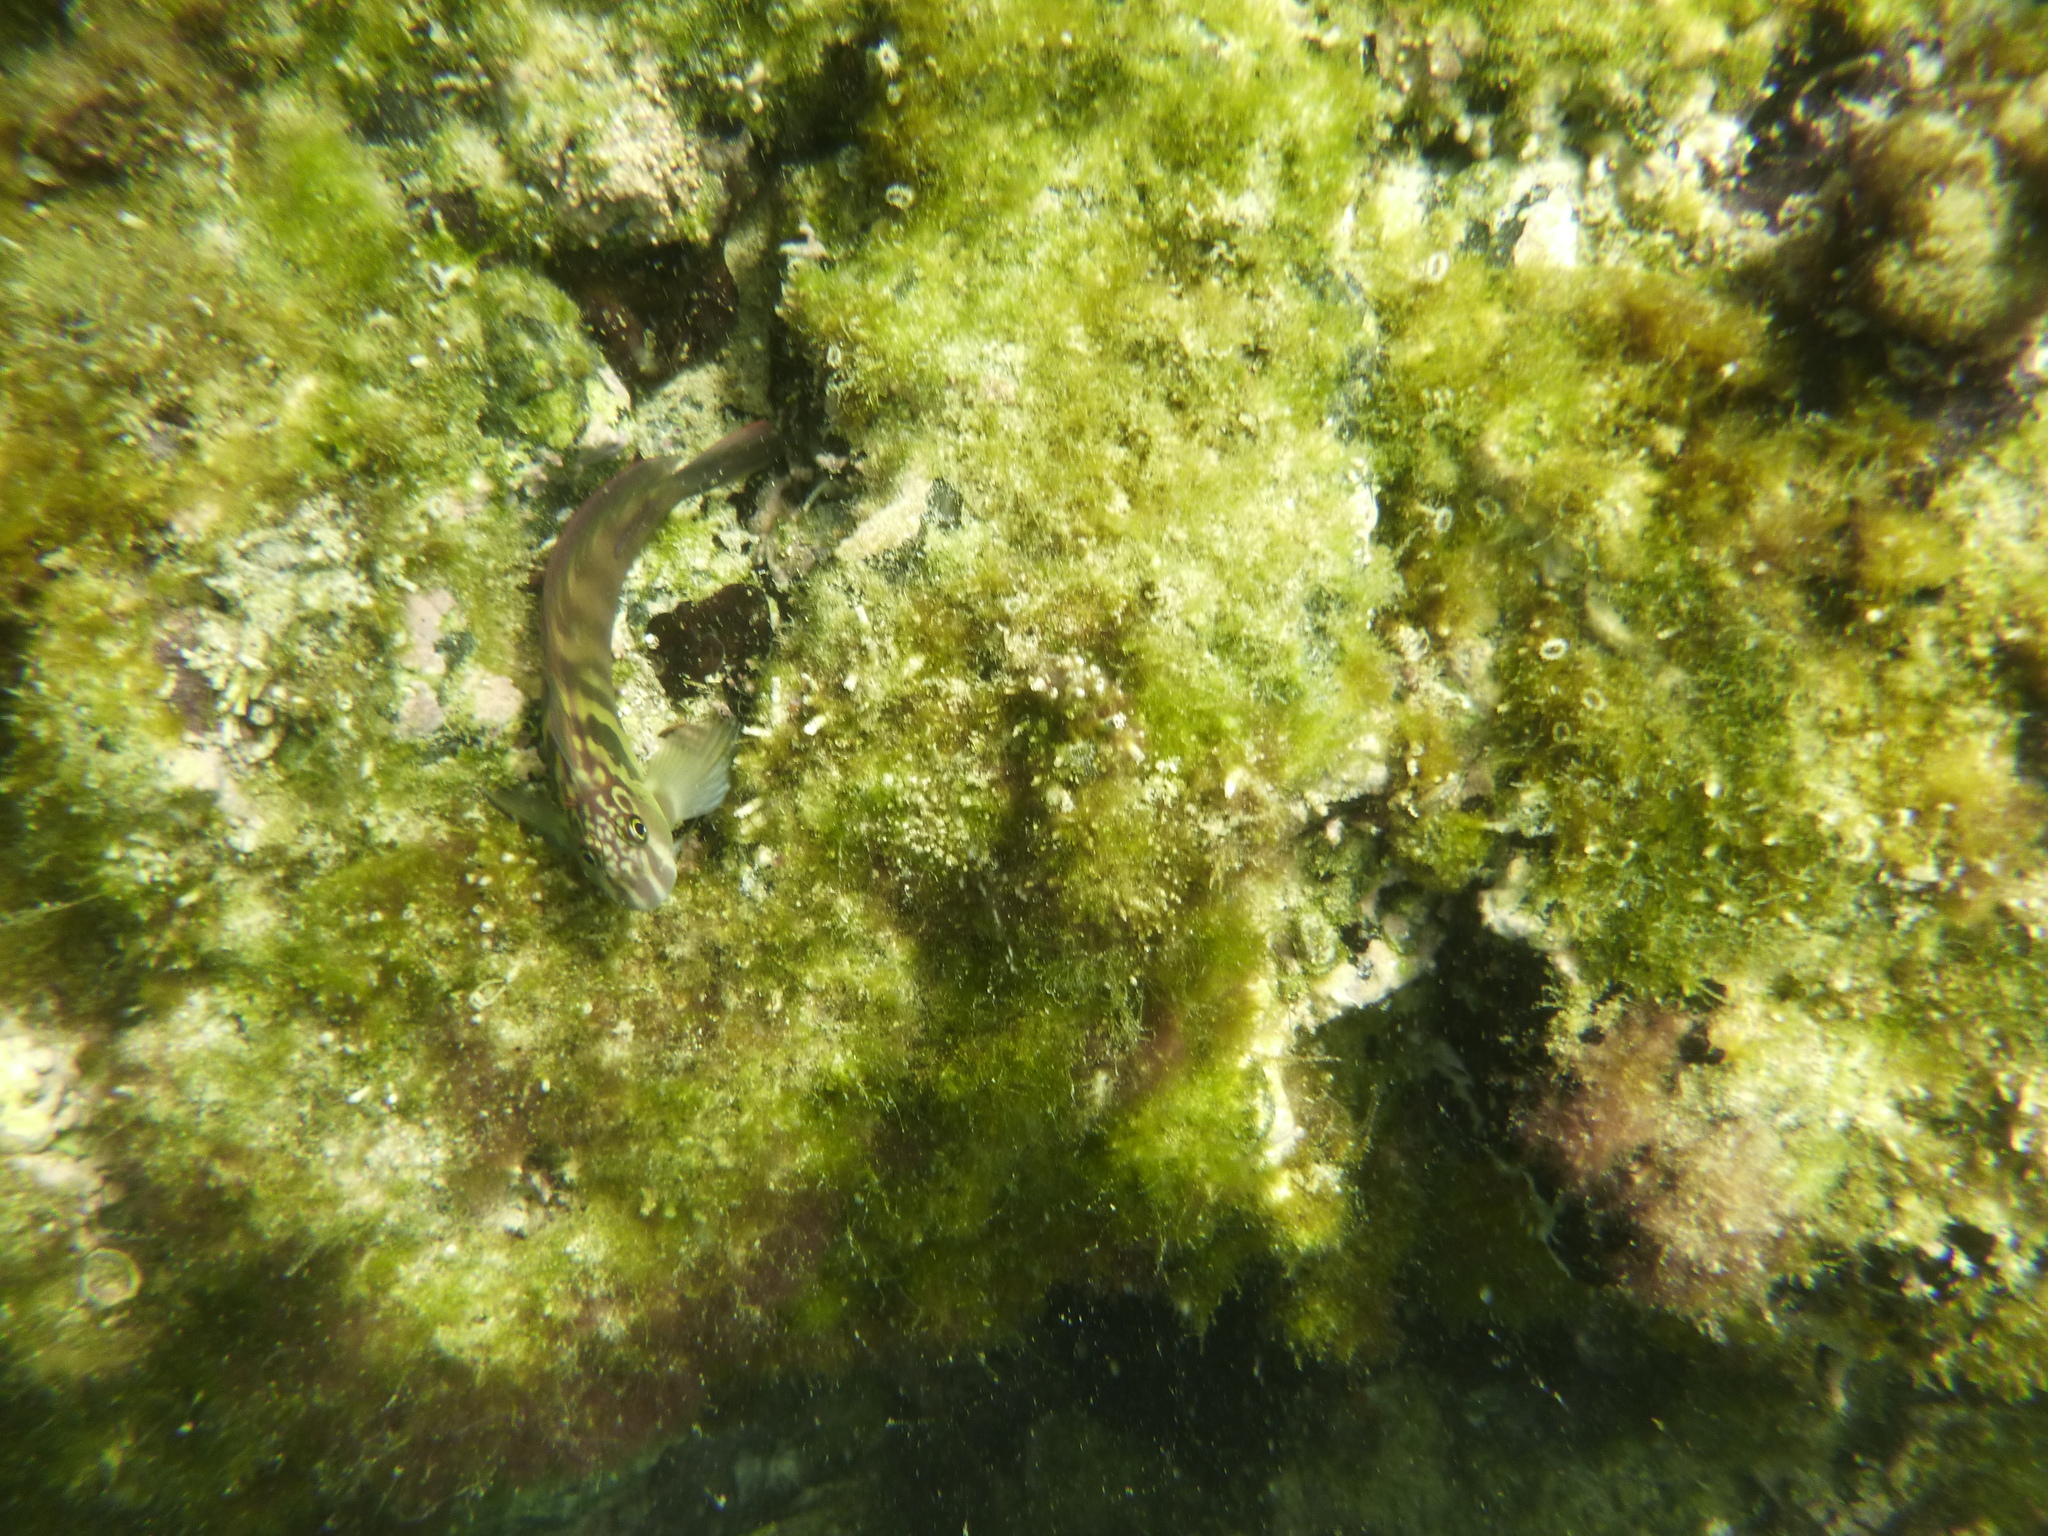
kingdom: Animalia
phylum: Chordata
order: Perciformes
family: Blenniidae
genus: Ophioblennius
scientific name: Ophioblennius steindachneri
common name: Panamic fanged blenny
